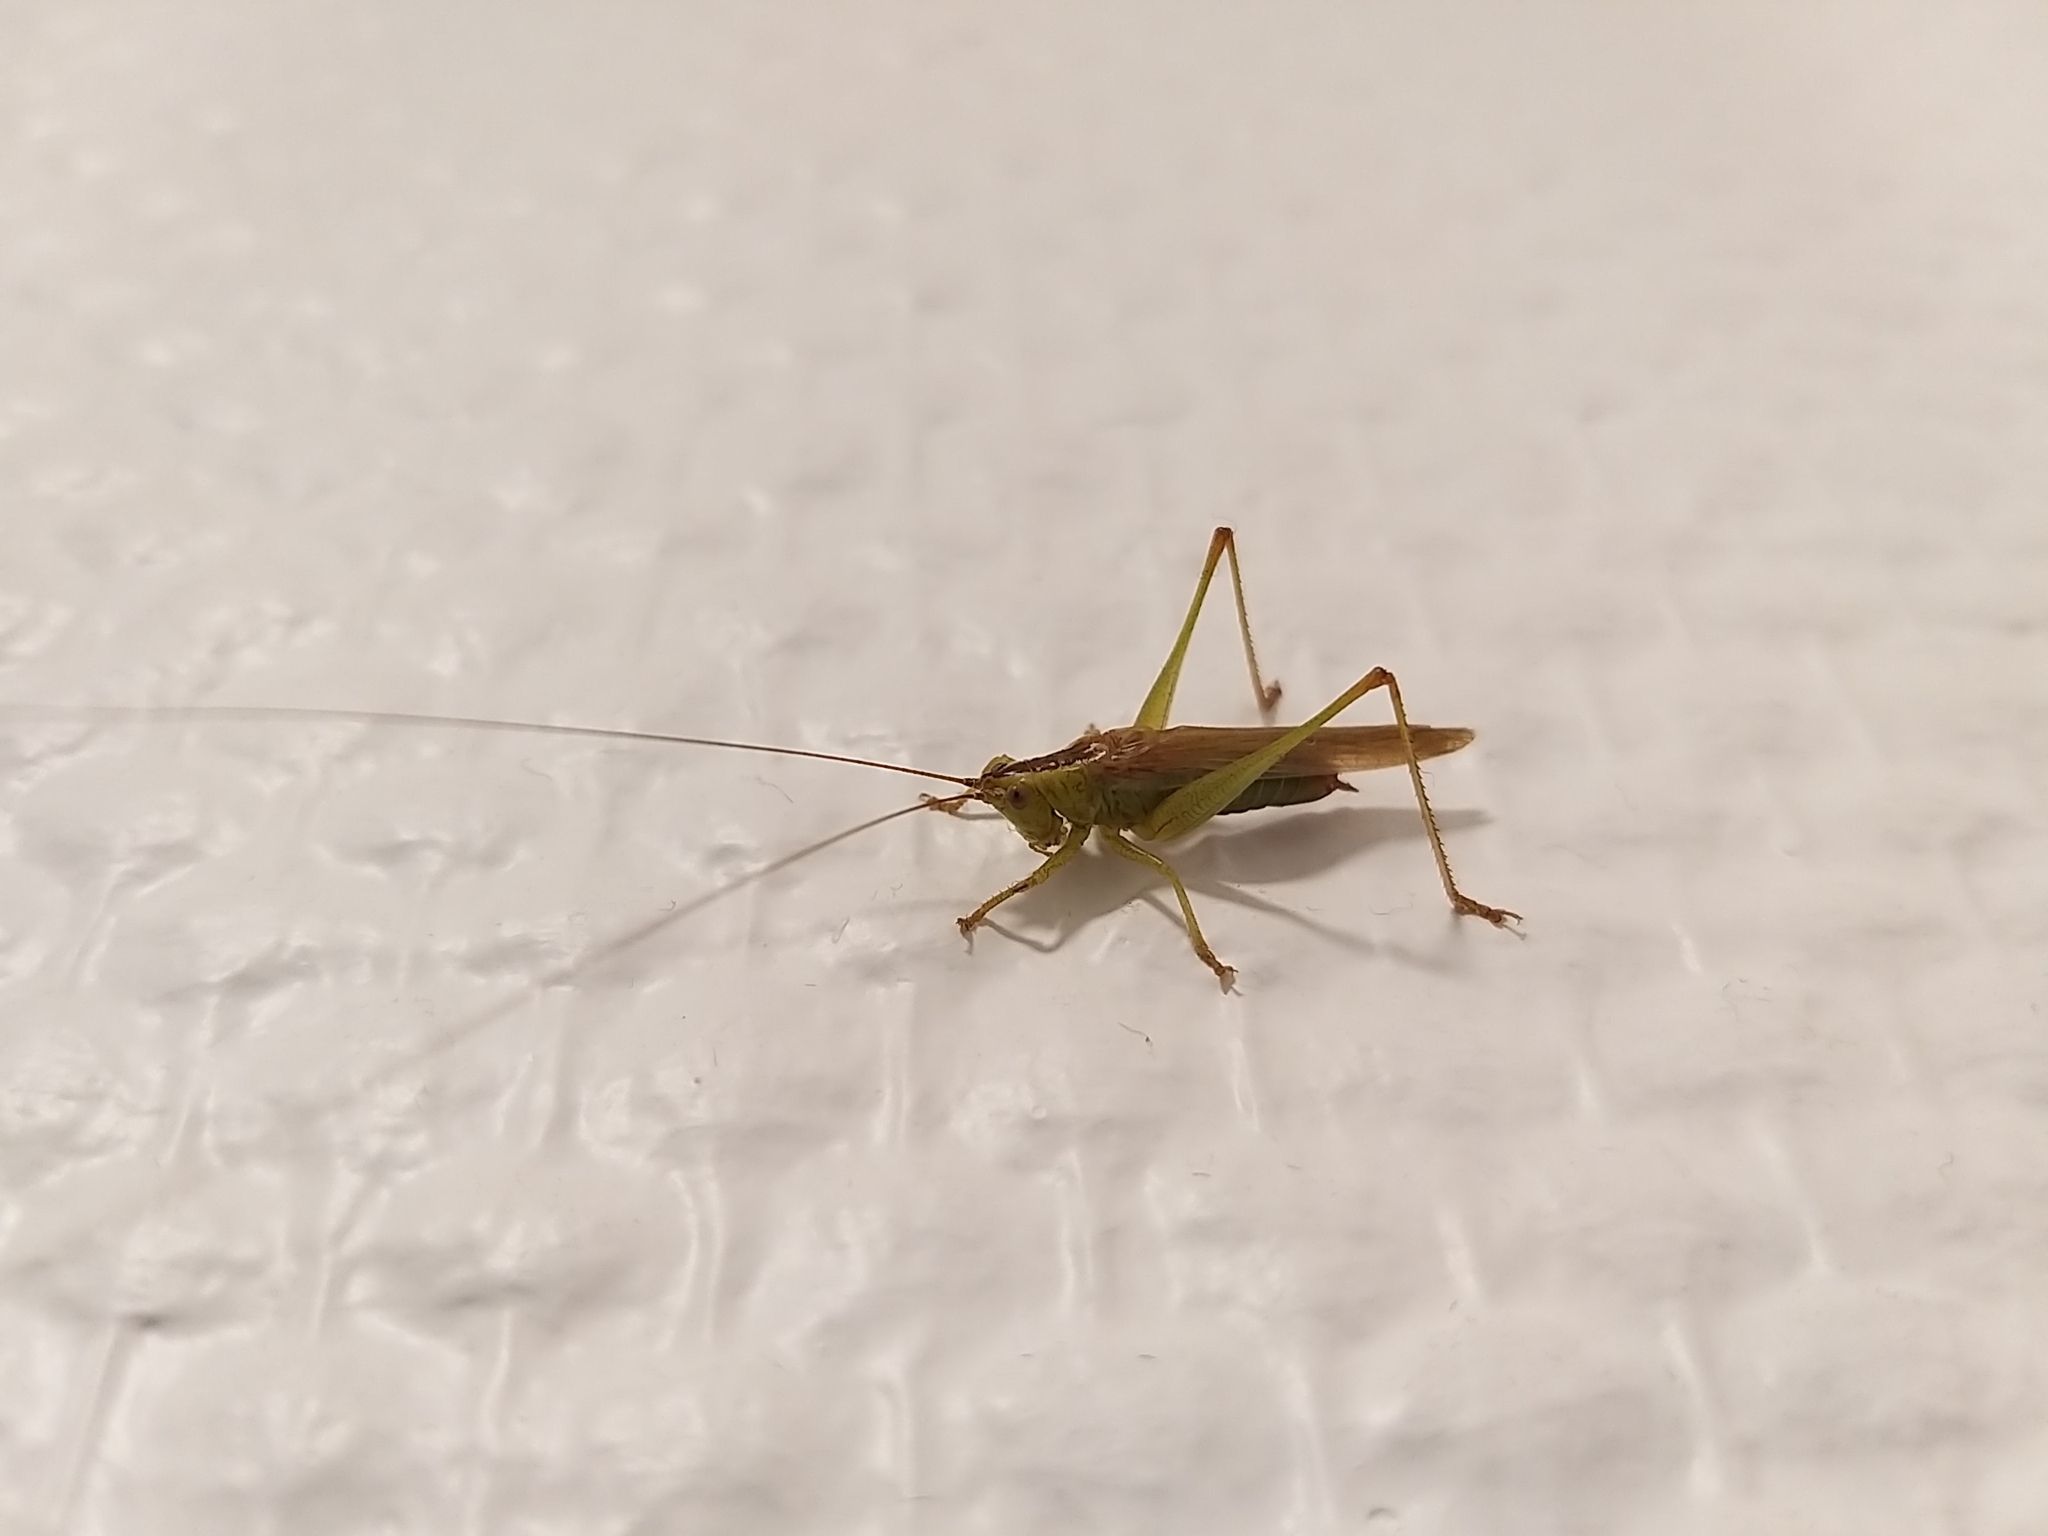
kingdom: Animalia
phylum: Arthropoda
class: Insecta
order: Orthoptera
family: Tettigoniidae
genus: Conocephalus
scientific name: Conocephalus fuscus
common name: Long-winged conehead
